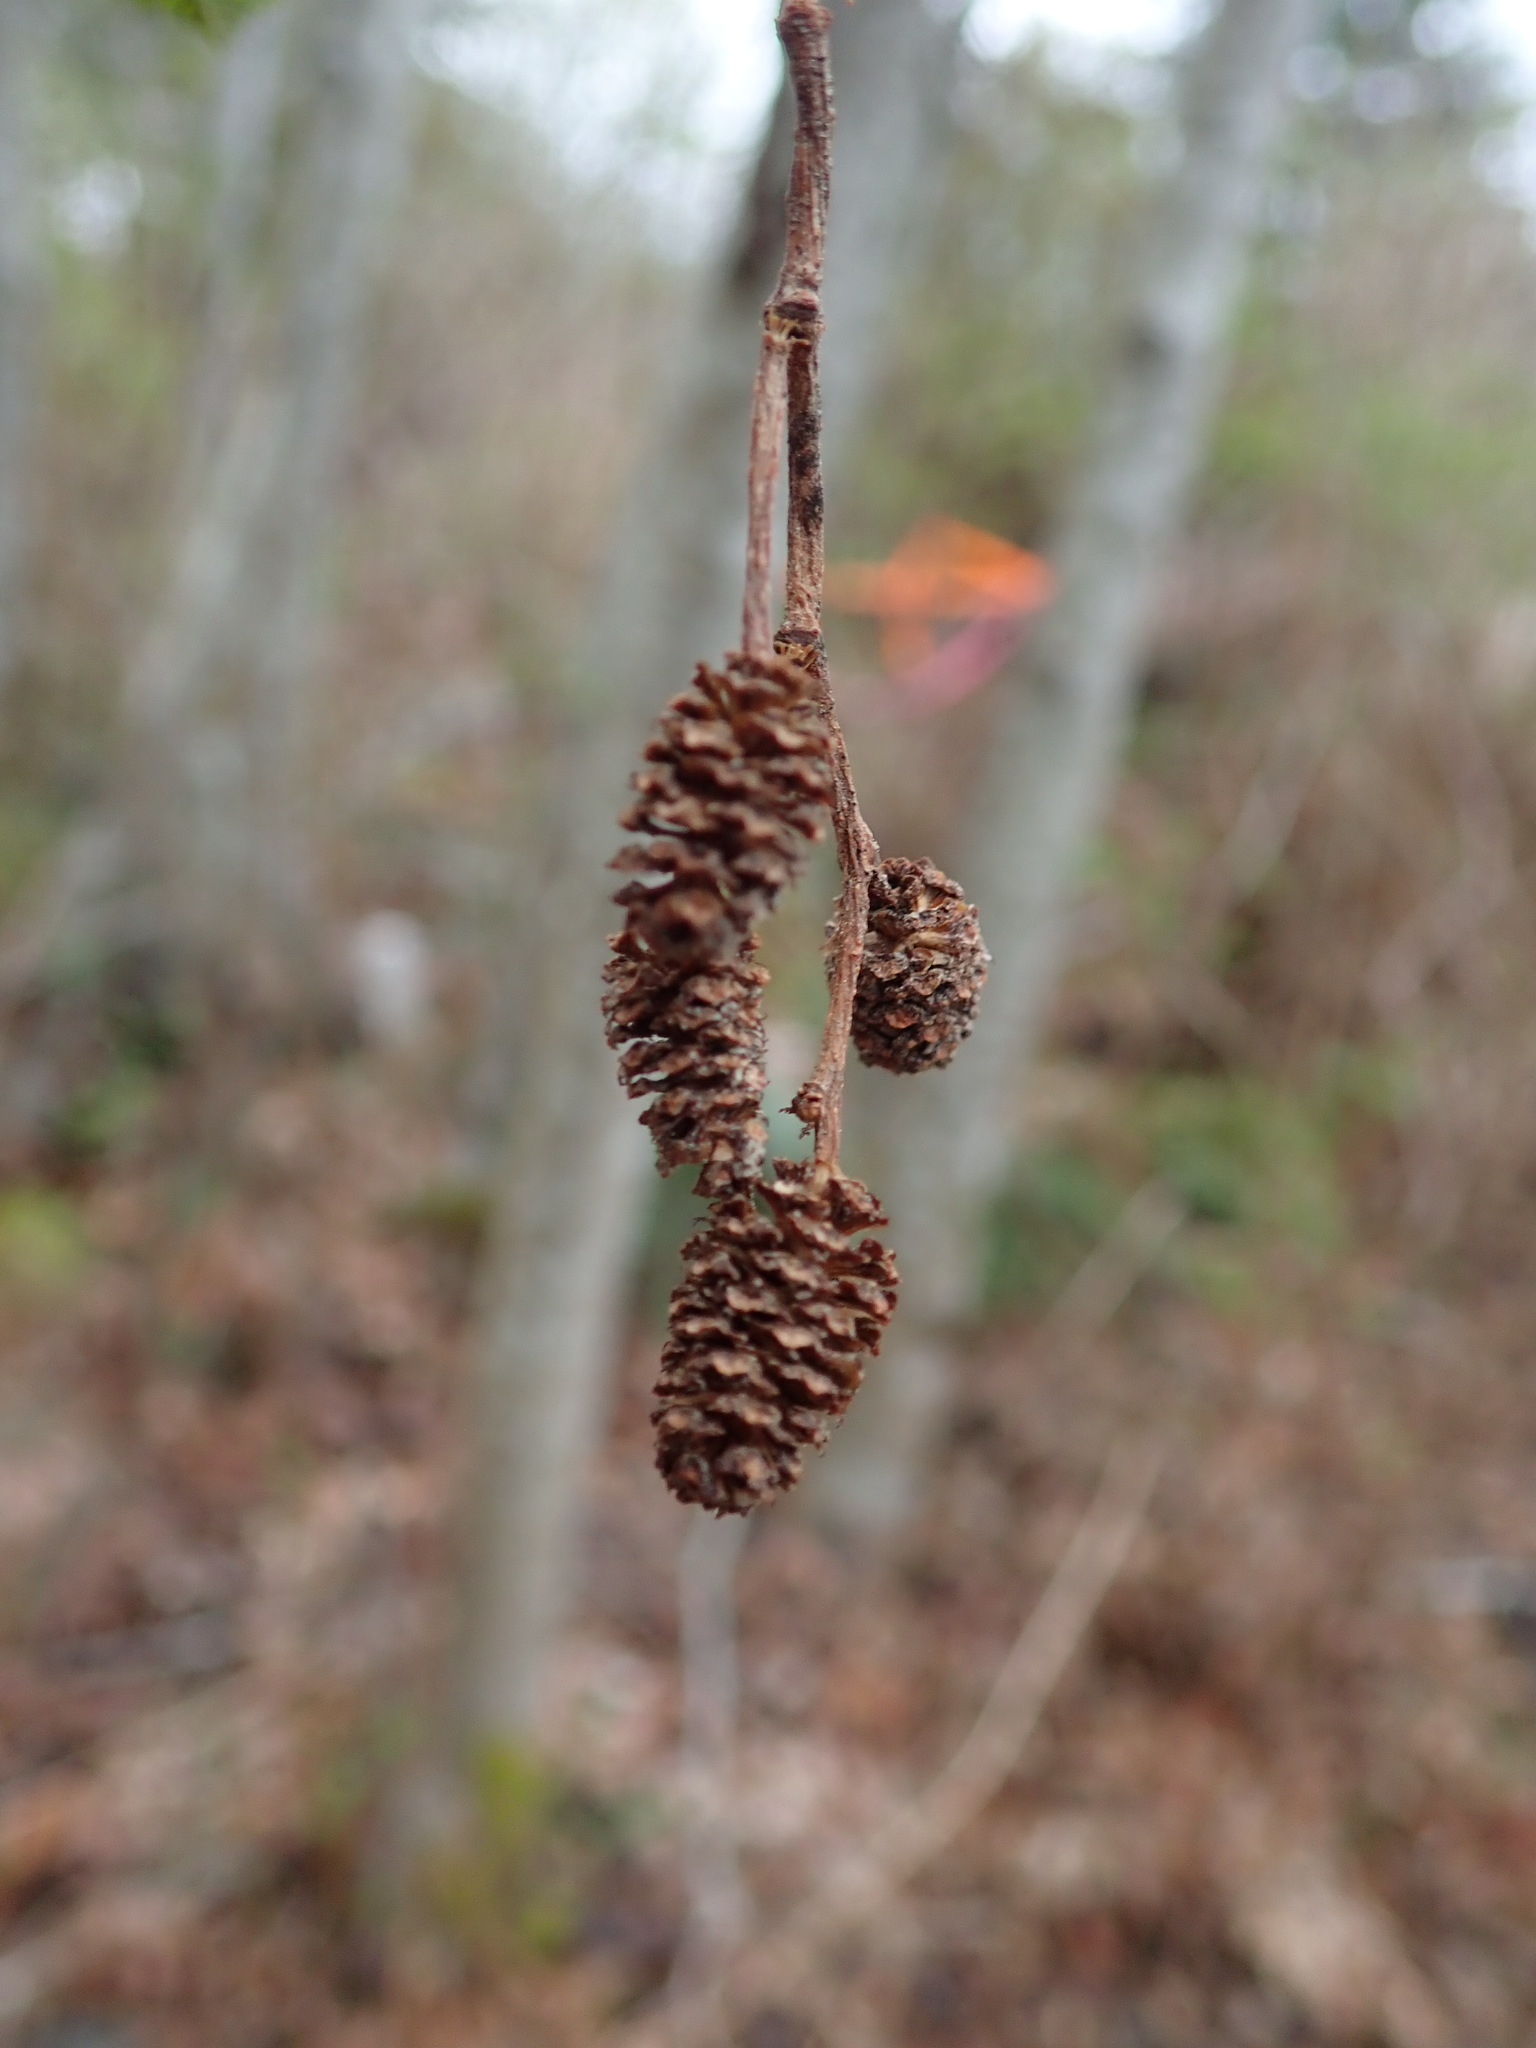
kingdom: Plantae
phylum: Tracheophyta
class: Magnoliopsida
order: Fagales
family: Betulaceae
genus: Alnus
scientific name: Alnus rubra
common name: Red alder
